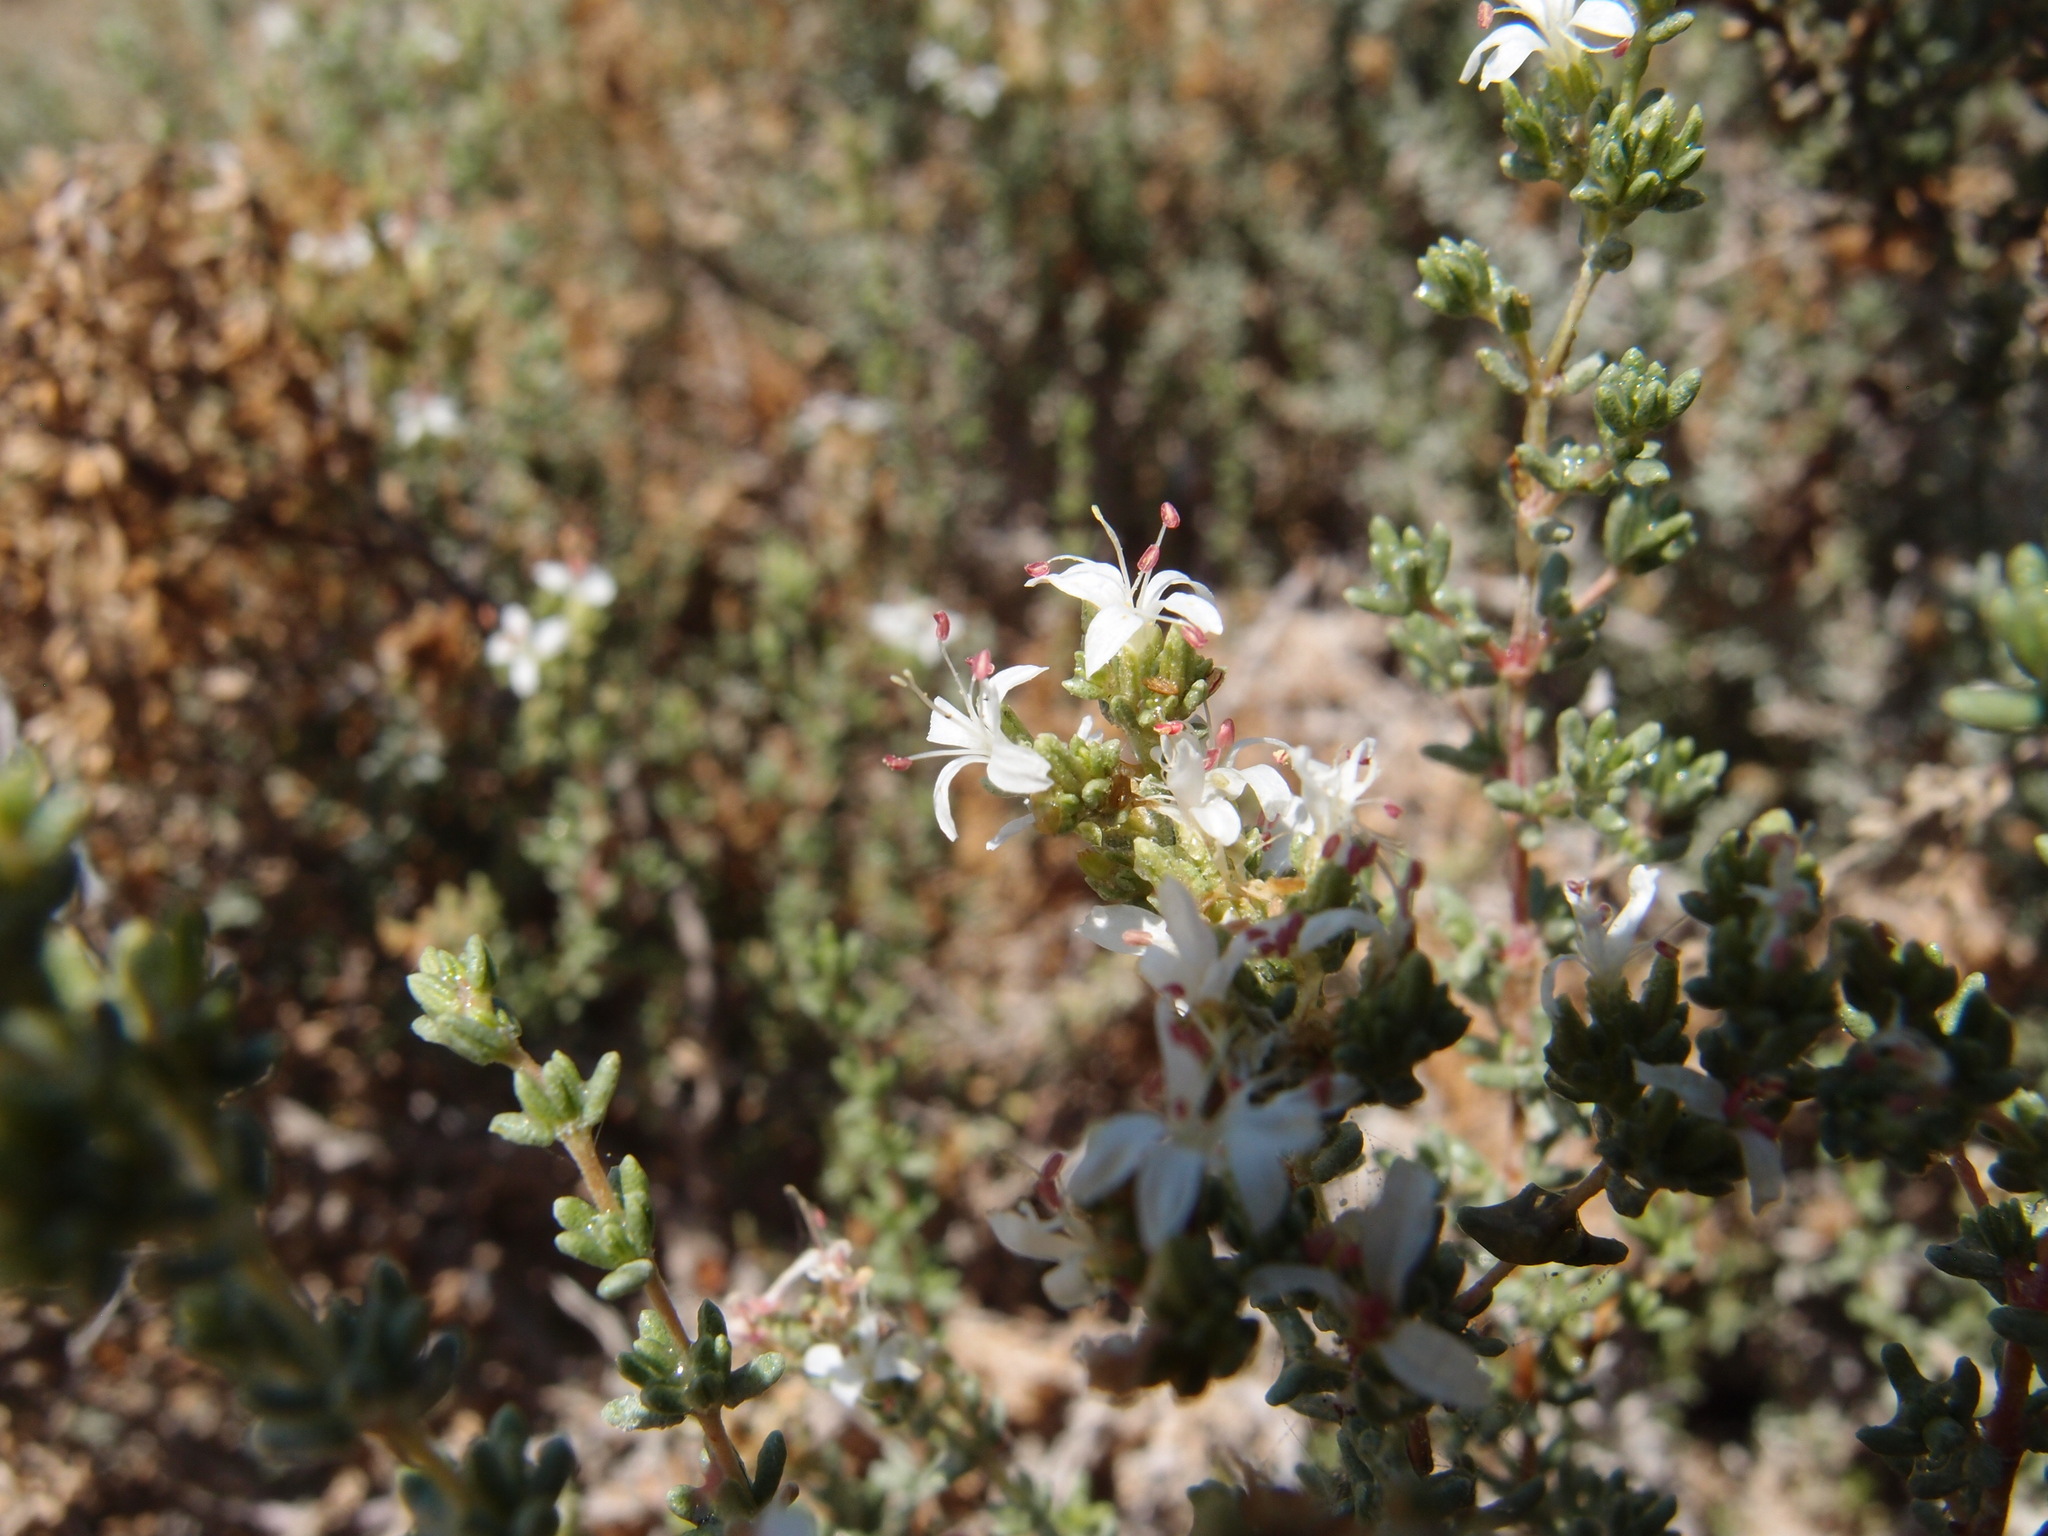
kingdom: Plantae
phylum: Tracheophyta
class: Magnoliopsida
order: Caryophyllales
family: Frankeniaceae
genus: Frankenia
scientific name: Frankenia palmeri
